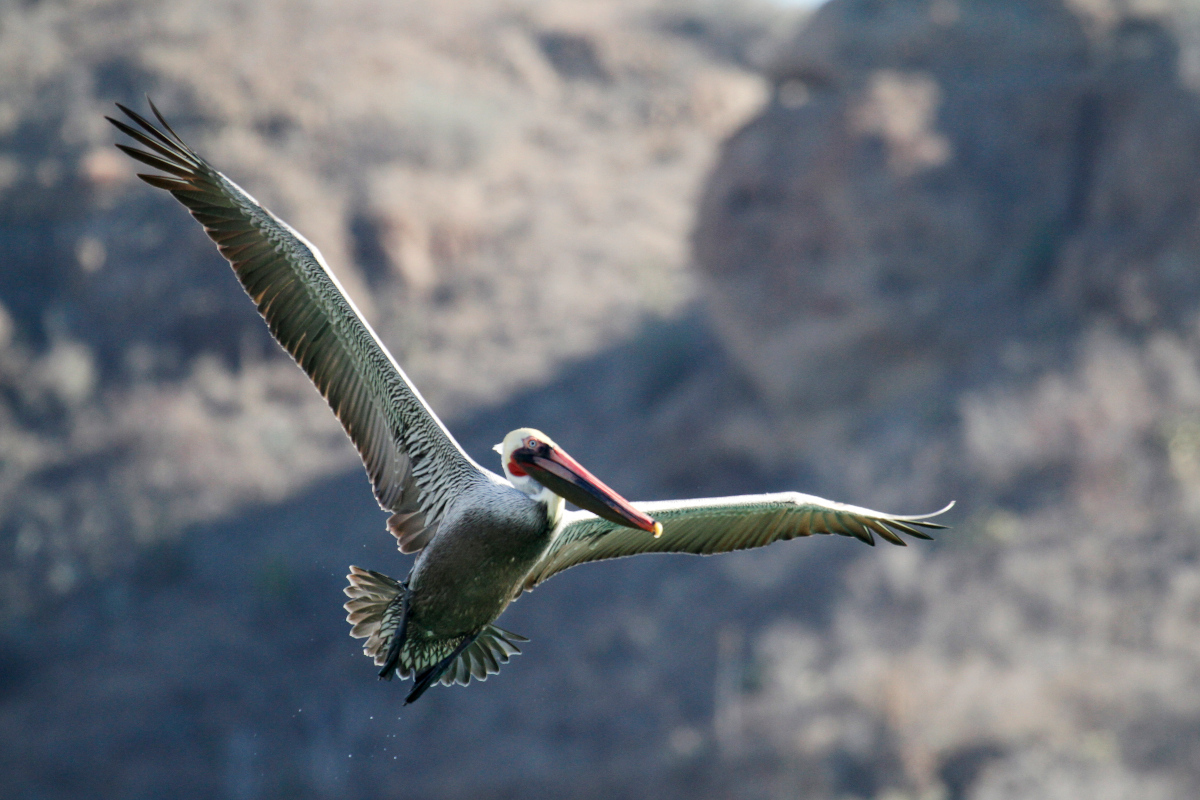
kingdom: Animalia
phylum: Chordata
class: Aves
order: Pelecaniformes
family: Pelecanidae
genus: Pelecanus
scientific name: Pelecanus occidentalis
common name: Brown pelican
